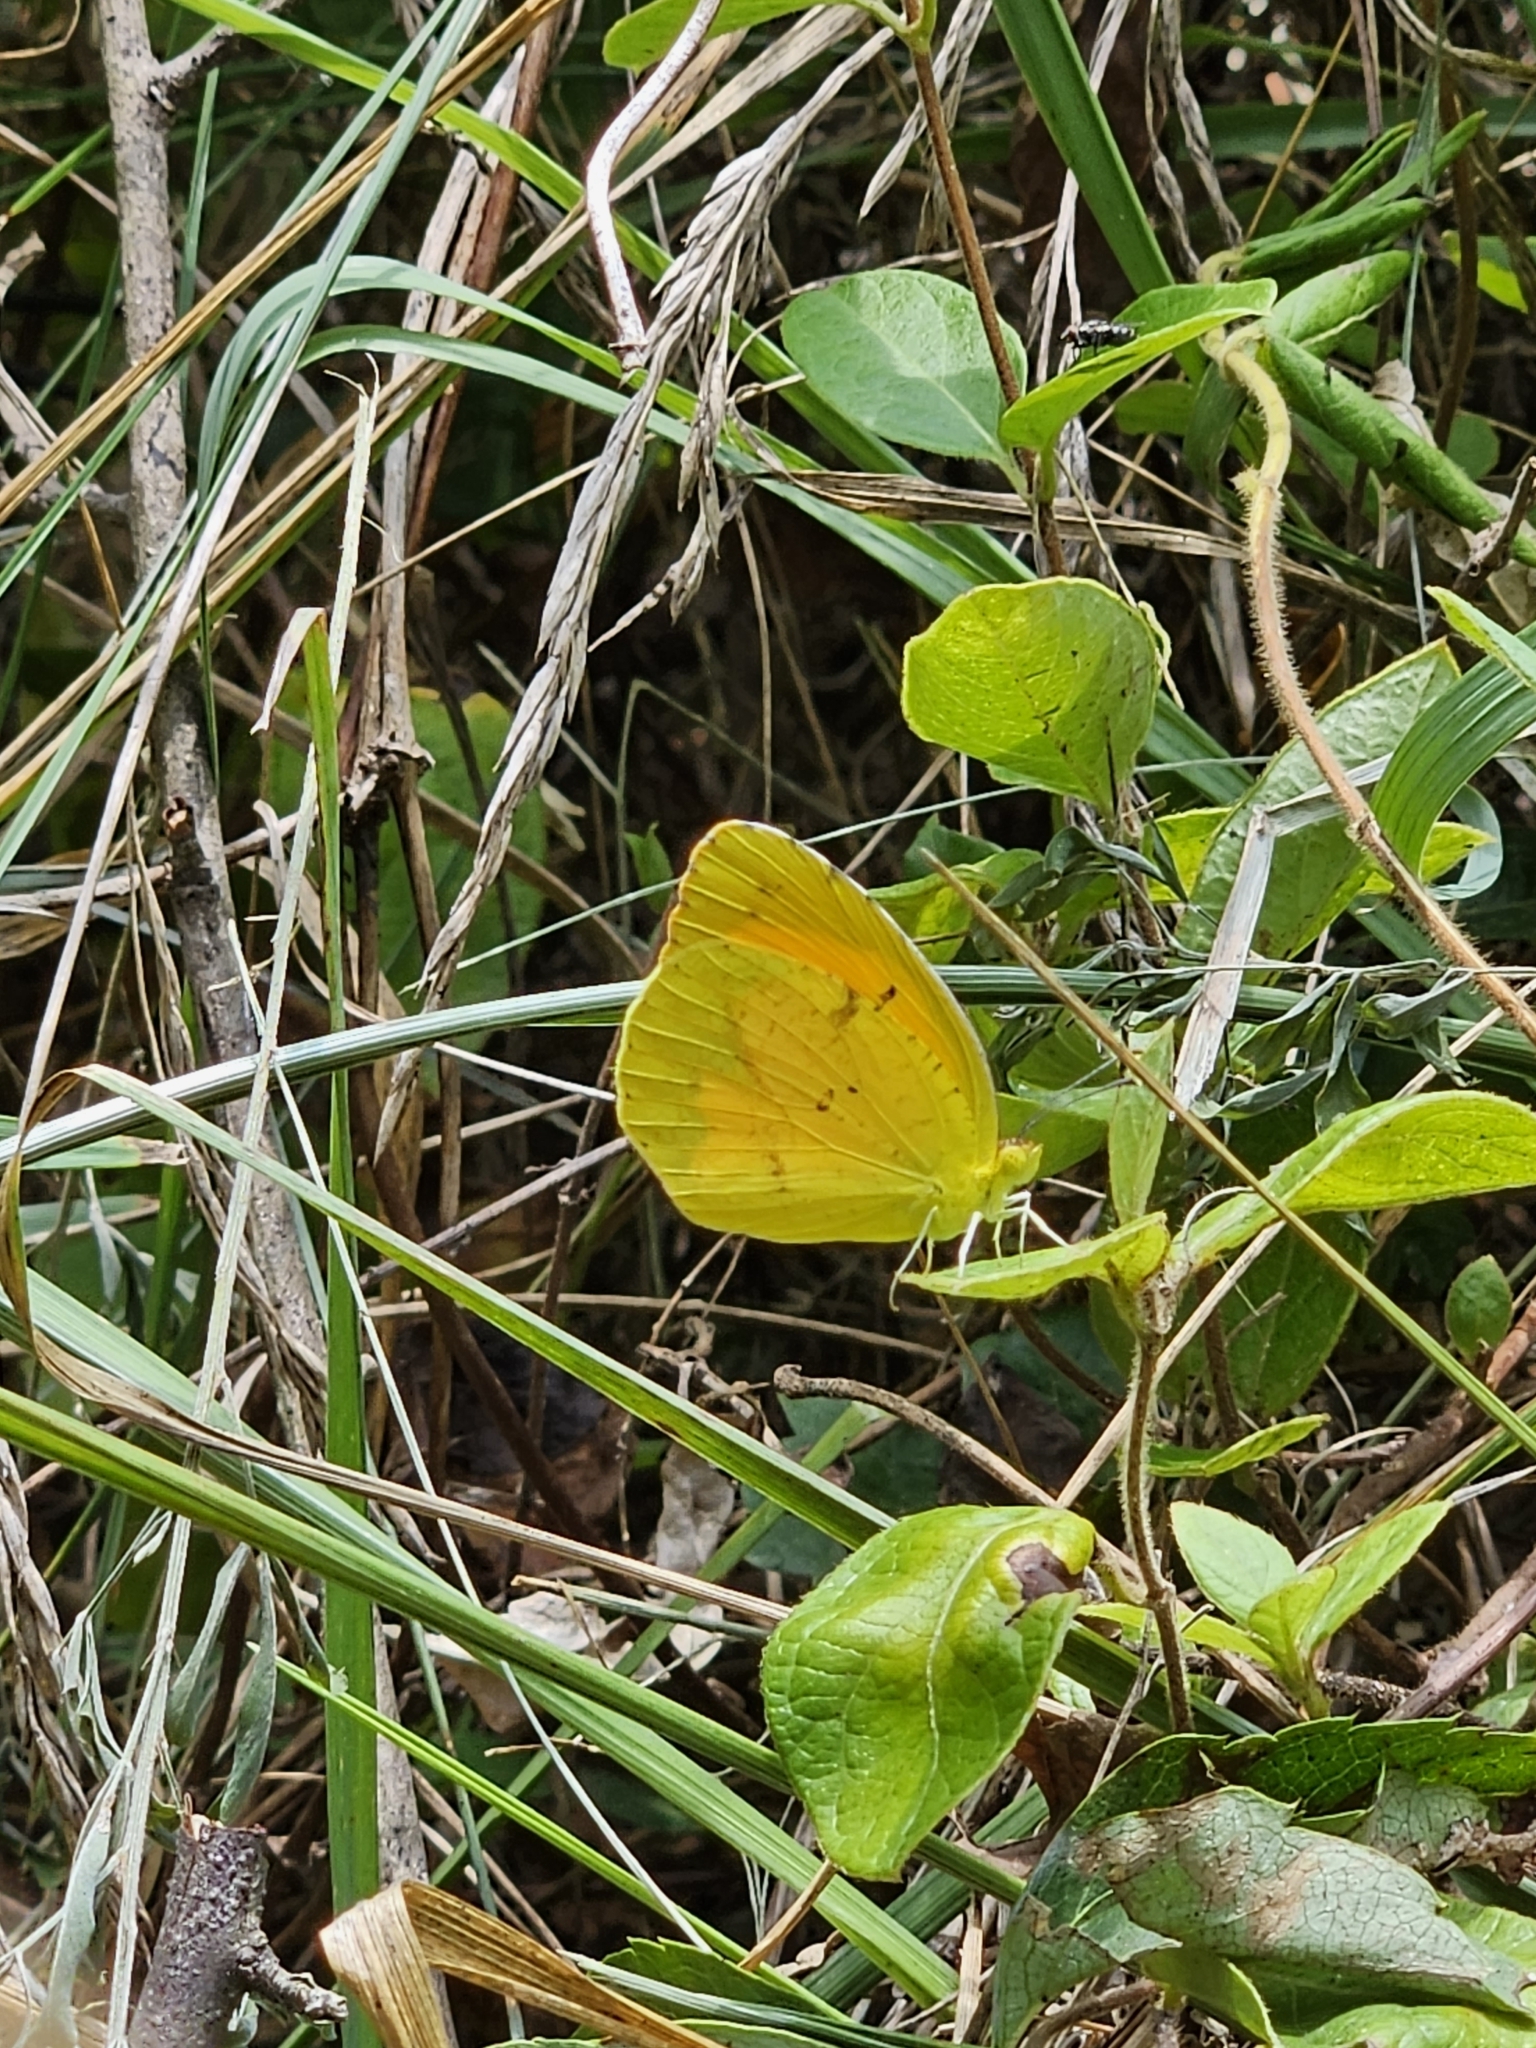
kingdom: Animalia
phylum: Arthropoda
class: Insecta
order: Lepidoptera
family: Pieridae
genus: Abaeis
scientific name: Abaeis nicippe
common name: Sleepy orange
